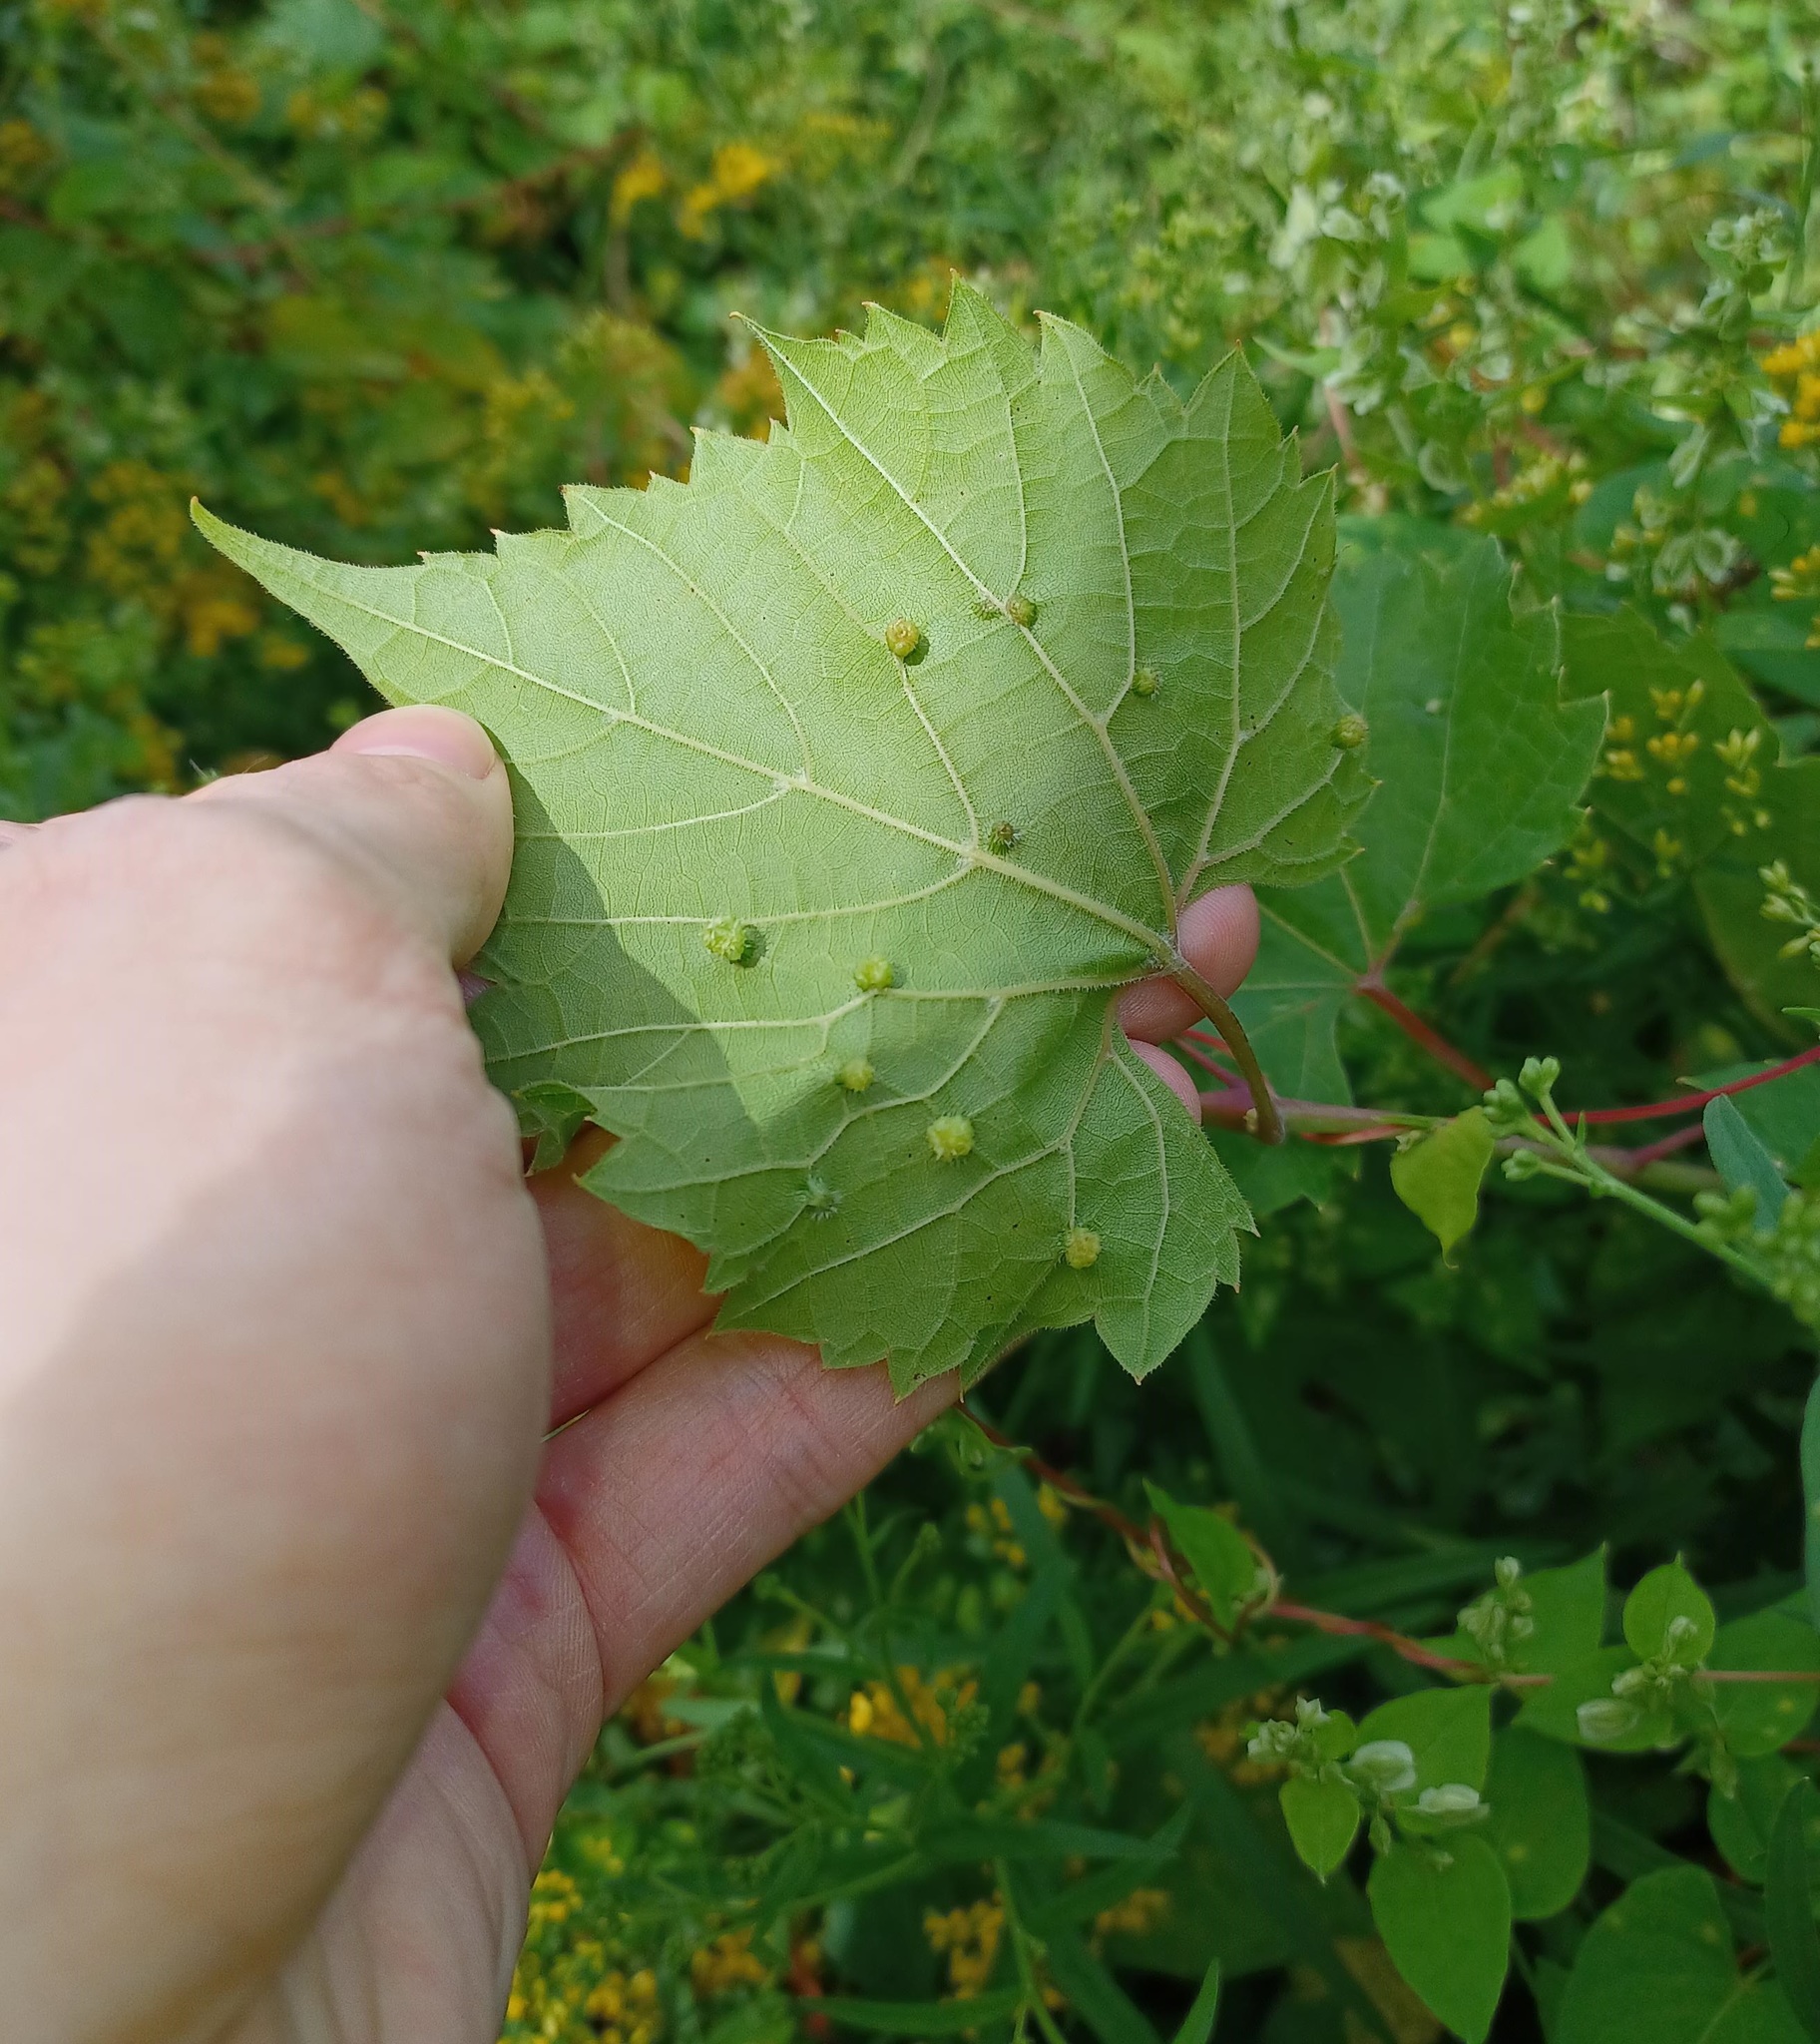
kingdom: Animalia
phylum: Arthropoda
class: Insecta
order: Hemiptera
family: Phylloxeridae
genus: Daktulosphaira
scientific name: Daktulosphaira vitifoliae
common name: Grape phylloxera
